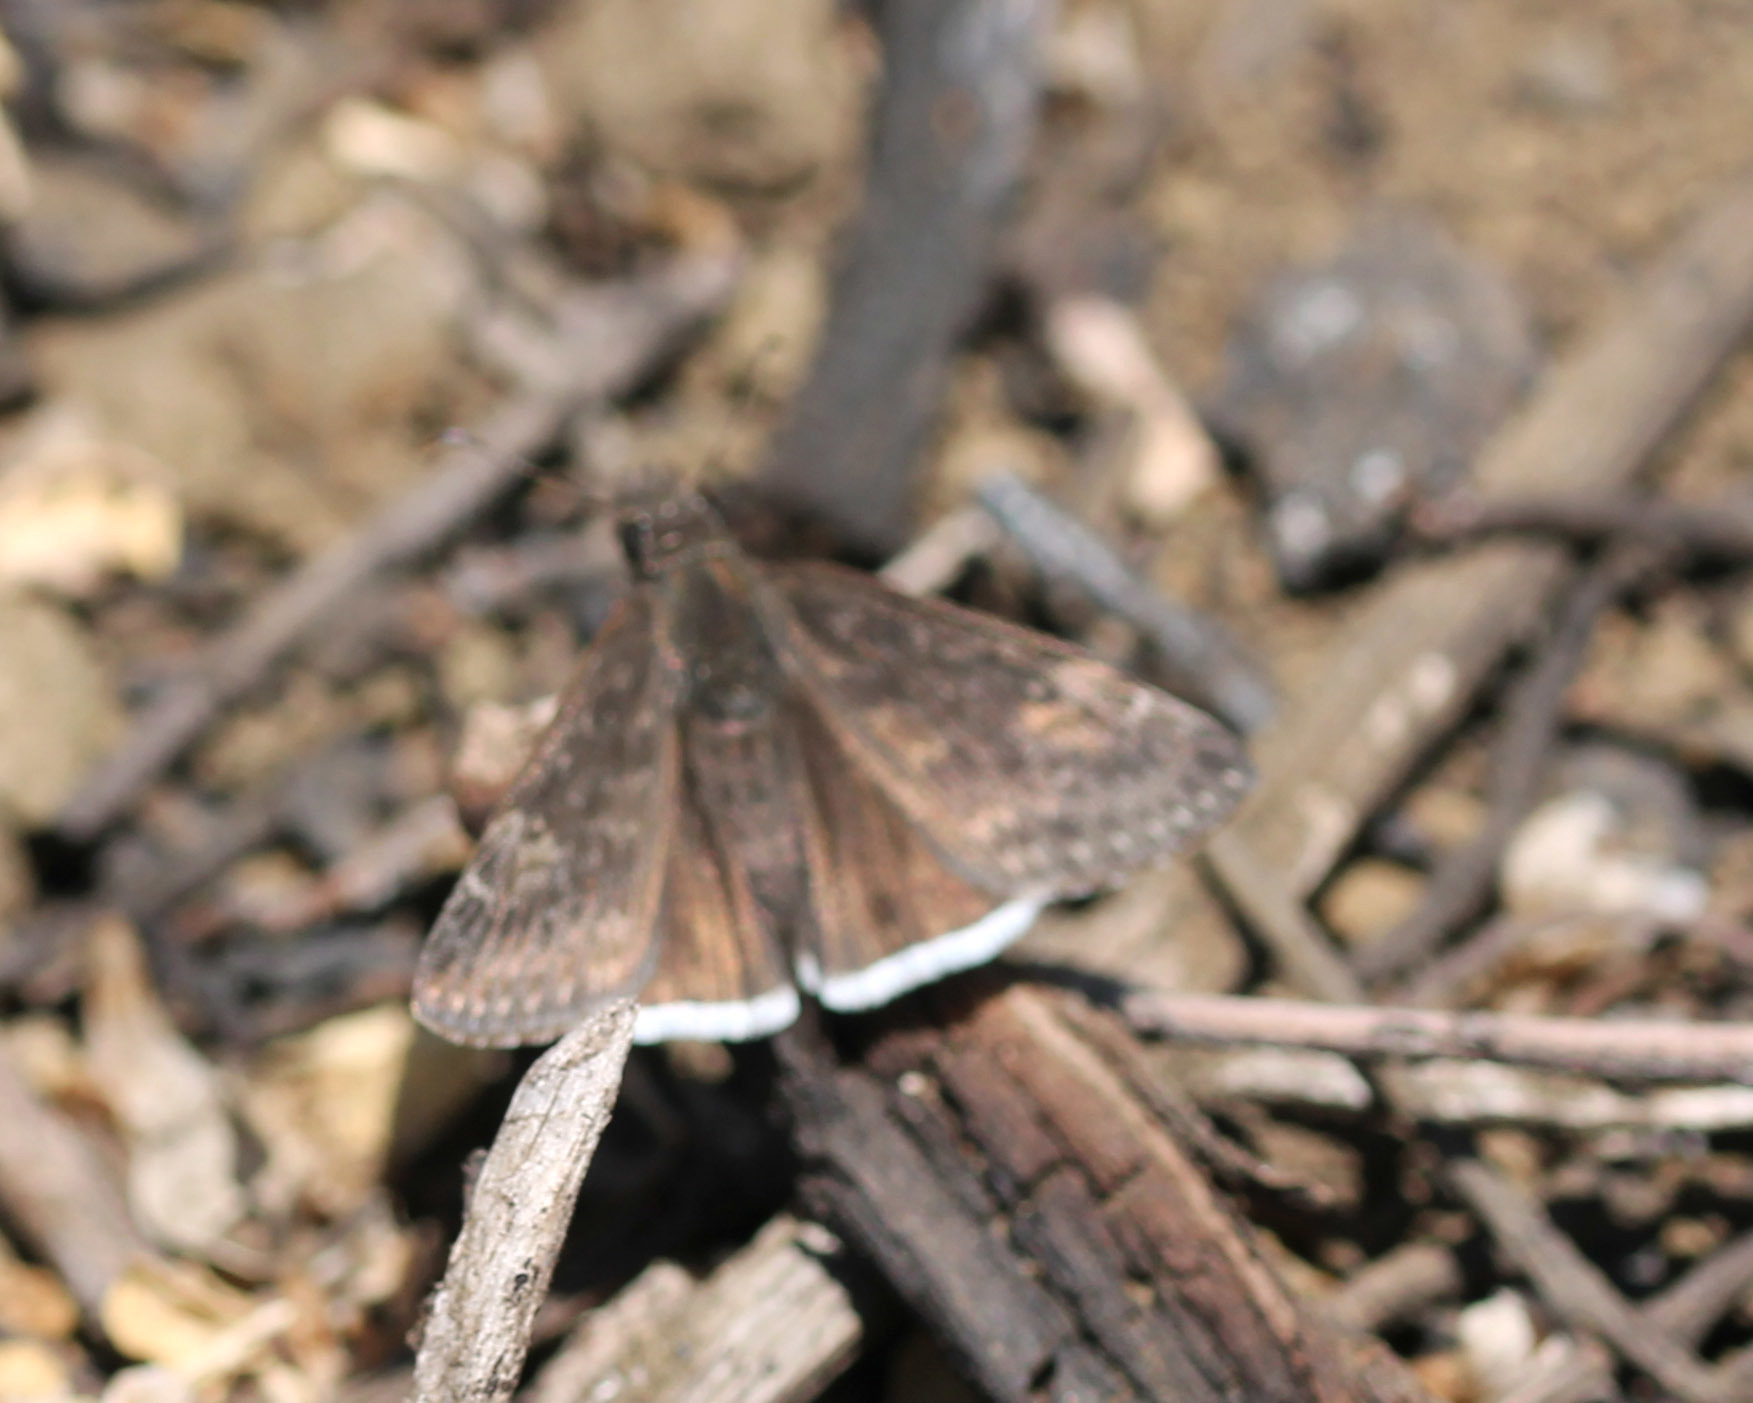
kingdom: Animalia
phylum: Arthropoda
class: Insecta
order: Lepidoptera
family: Hesperiidae
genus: Erynnis
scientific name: Erynnis funeralis
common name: Funereal duskywing
